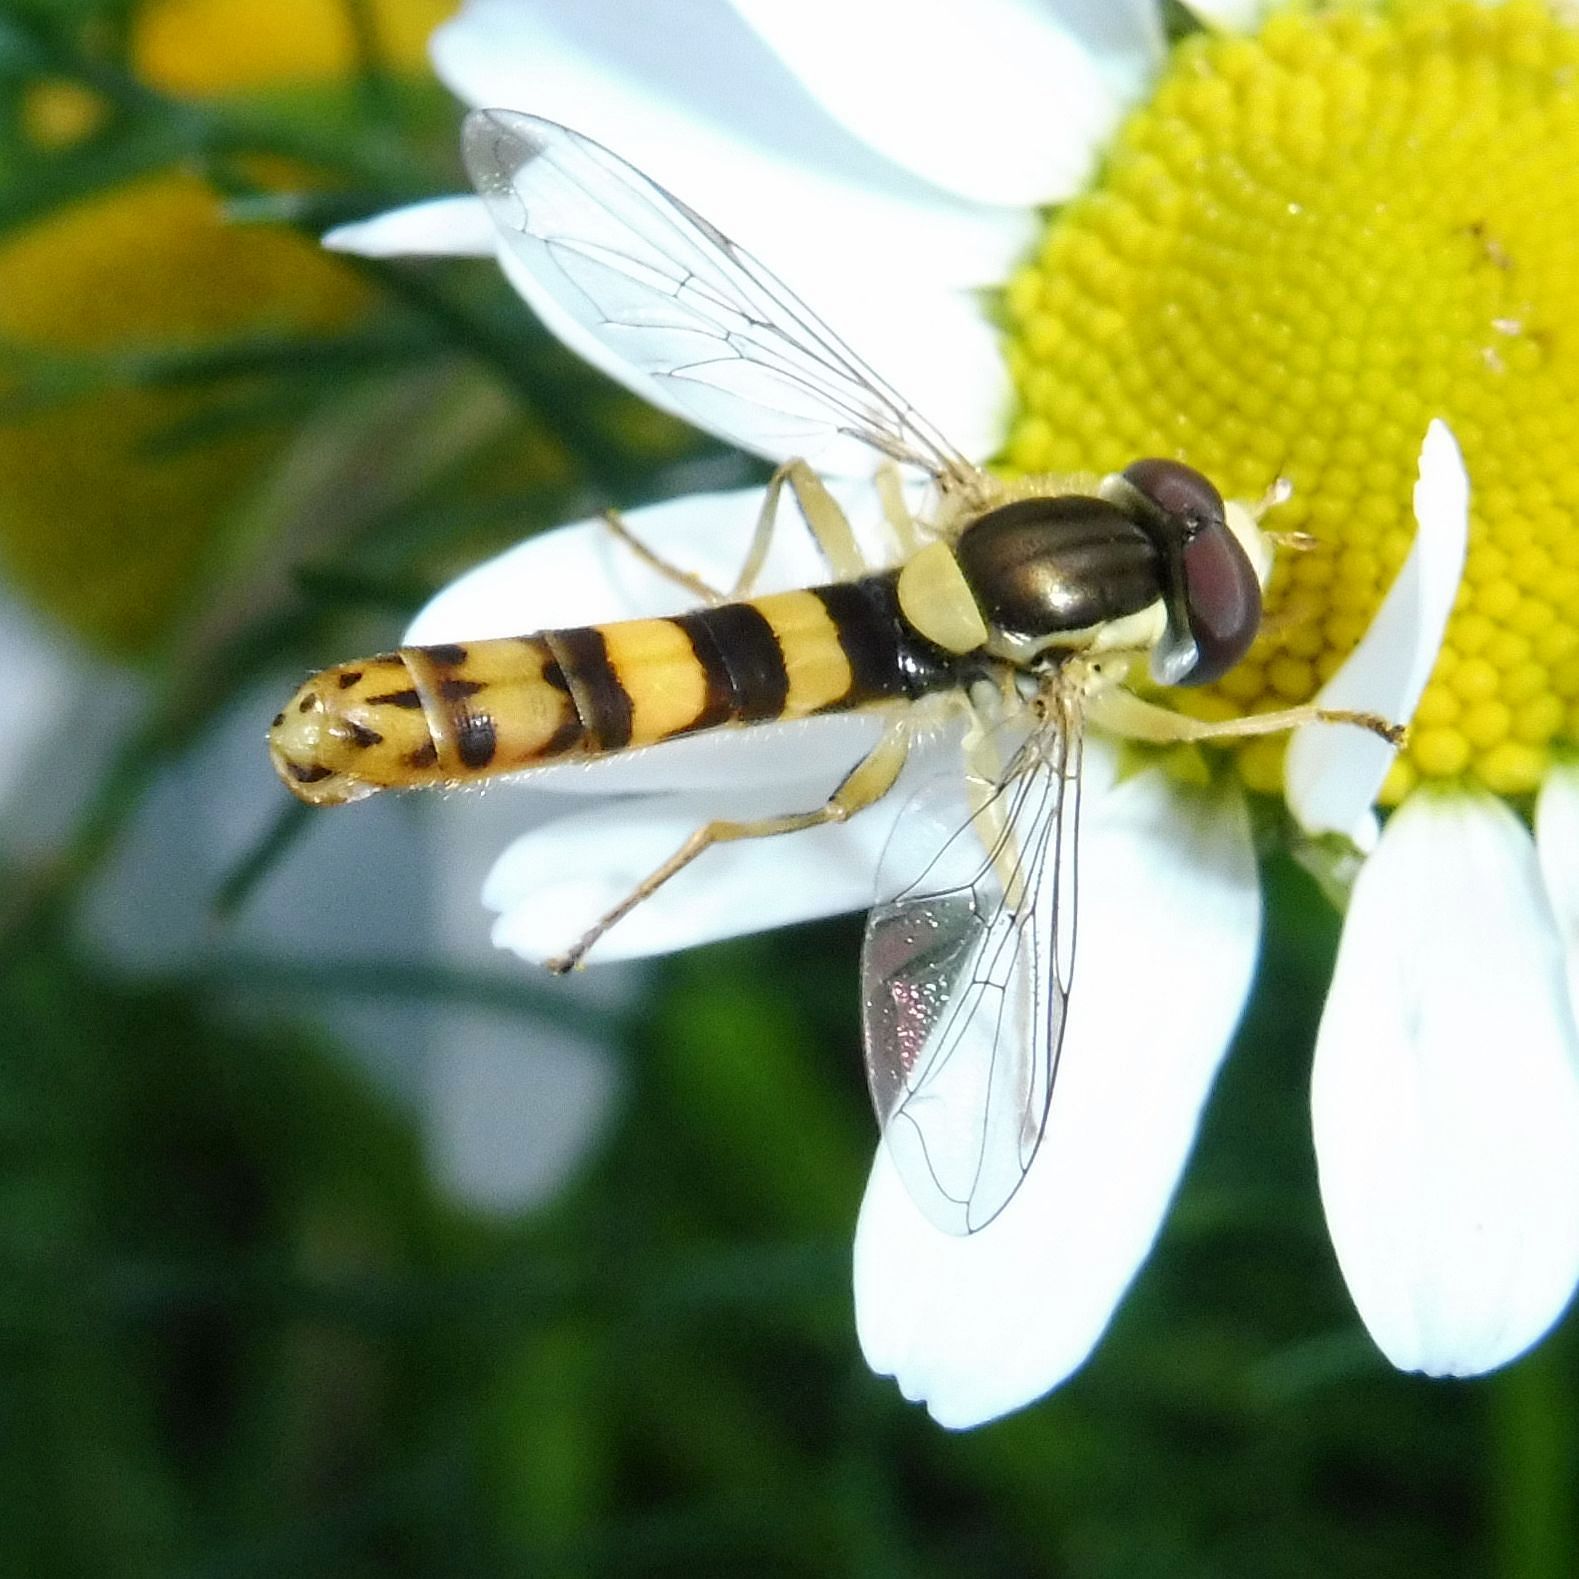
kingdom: Animalia
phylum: Arthropoda
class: Insecta
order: Diptera
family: Syrphidae
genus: Sphaerophoria
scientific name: Sphaerophoria scripta
